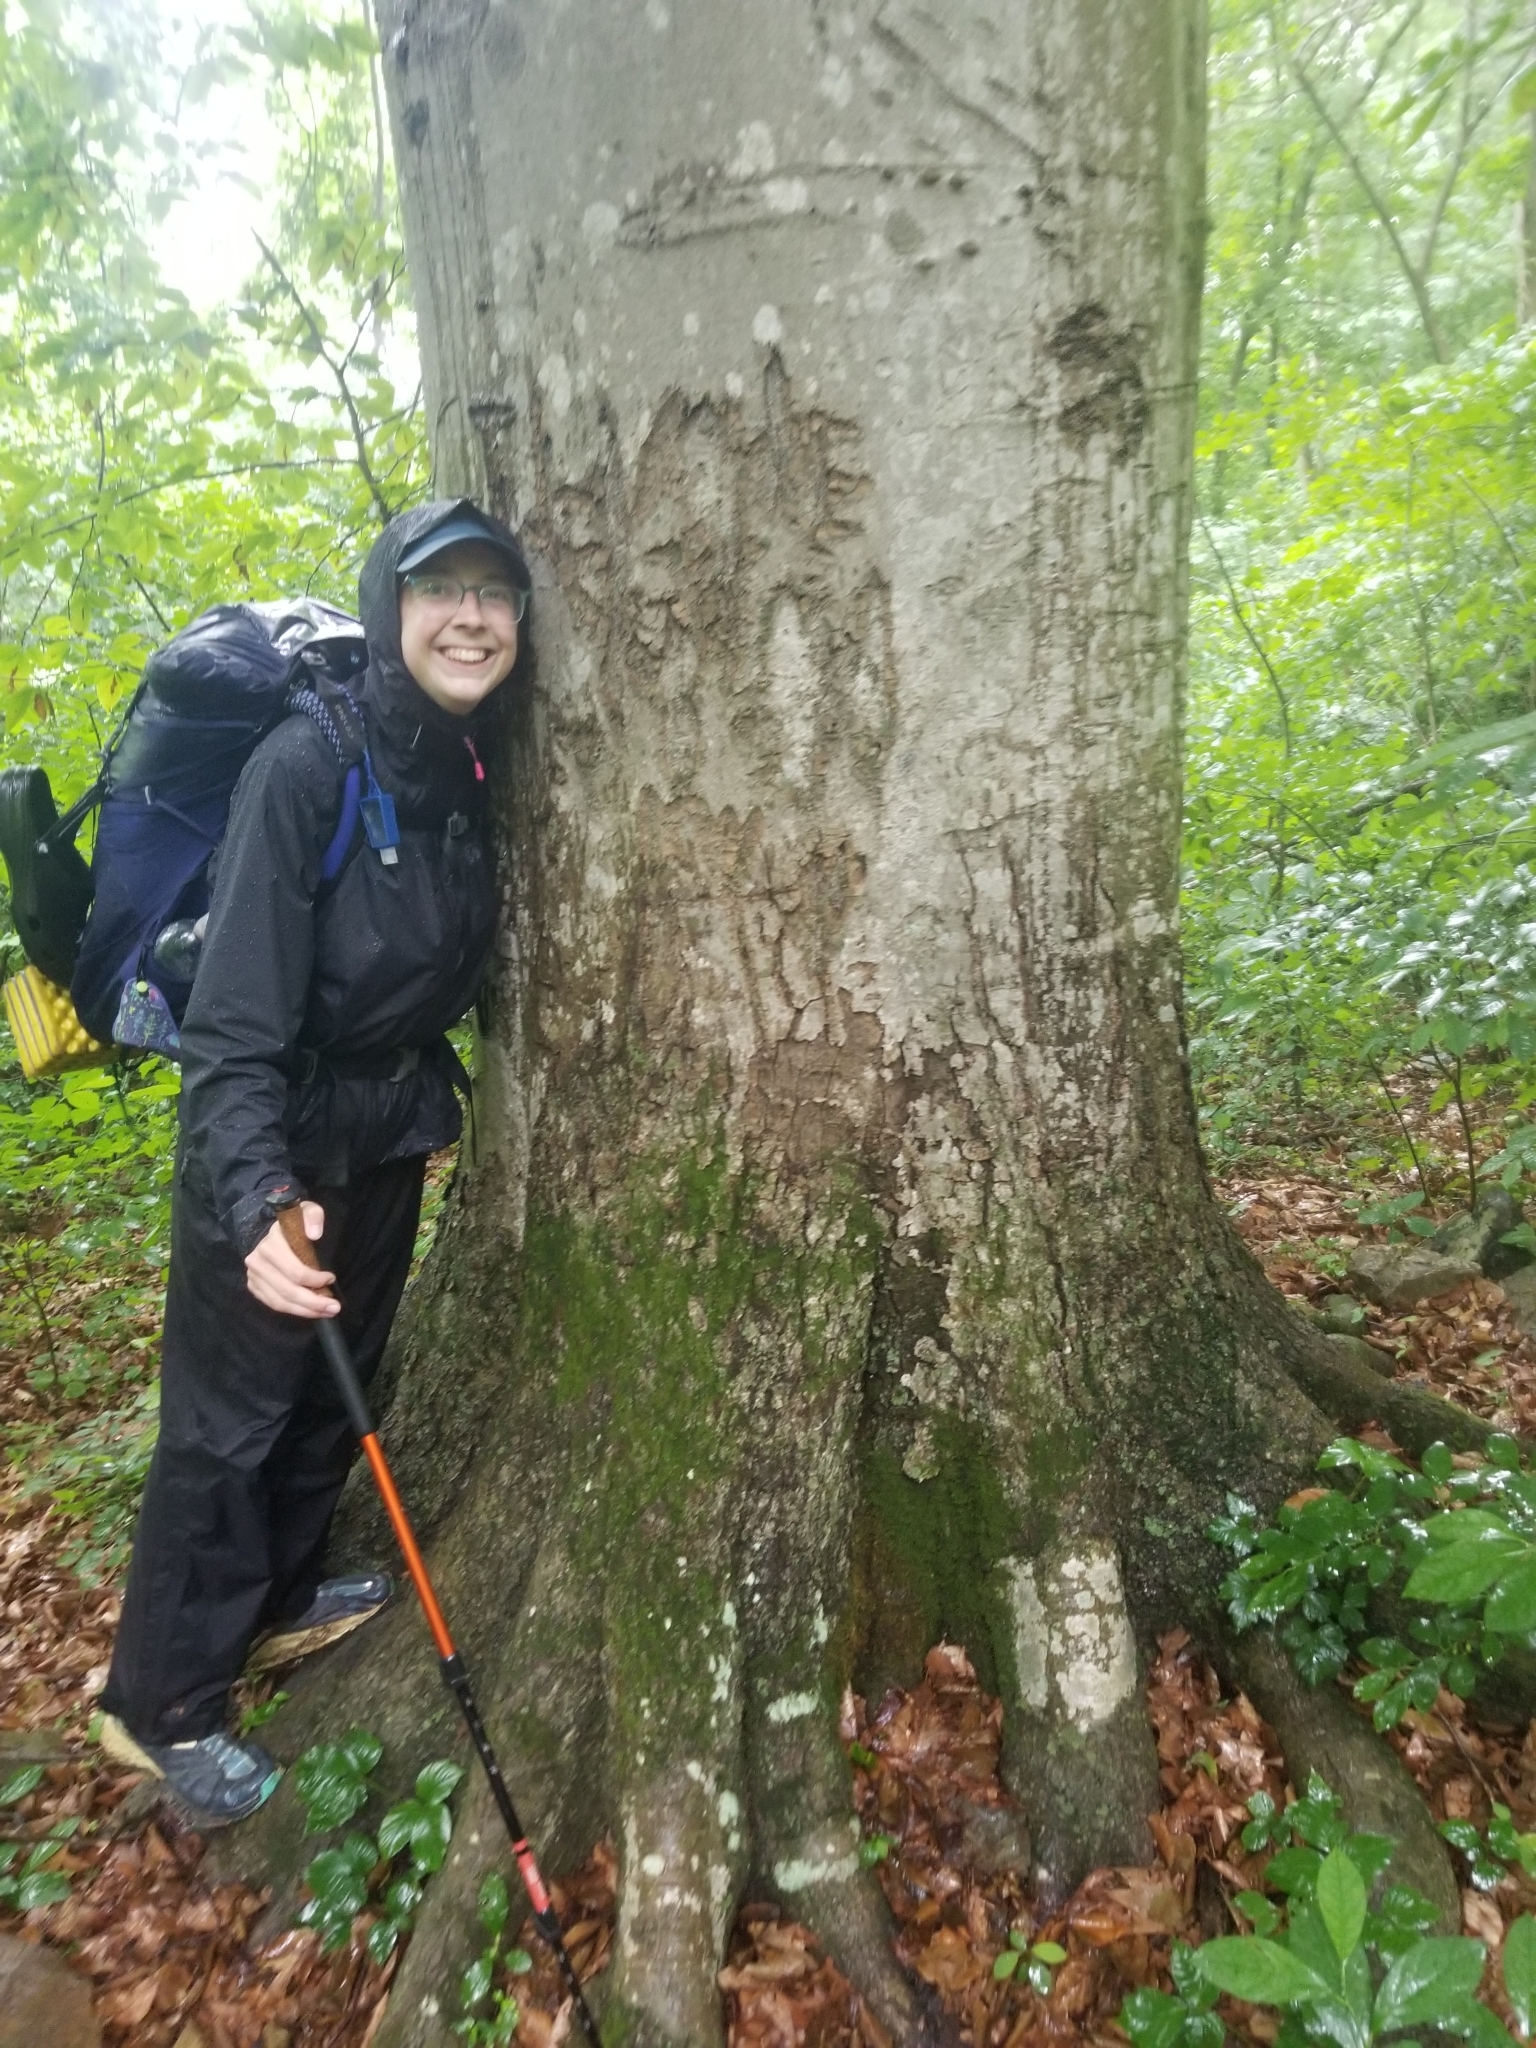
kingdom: Plantae
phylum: Tracheophyta
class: Magnoliopsida
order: Fagales
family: Fagaceae
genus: Fagus
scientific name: Fagus grandifolia
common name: American beech
